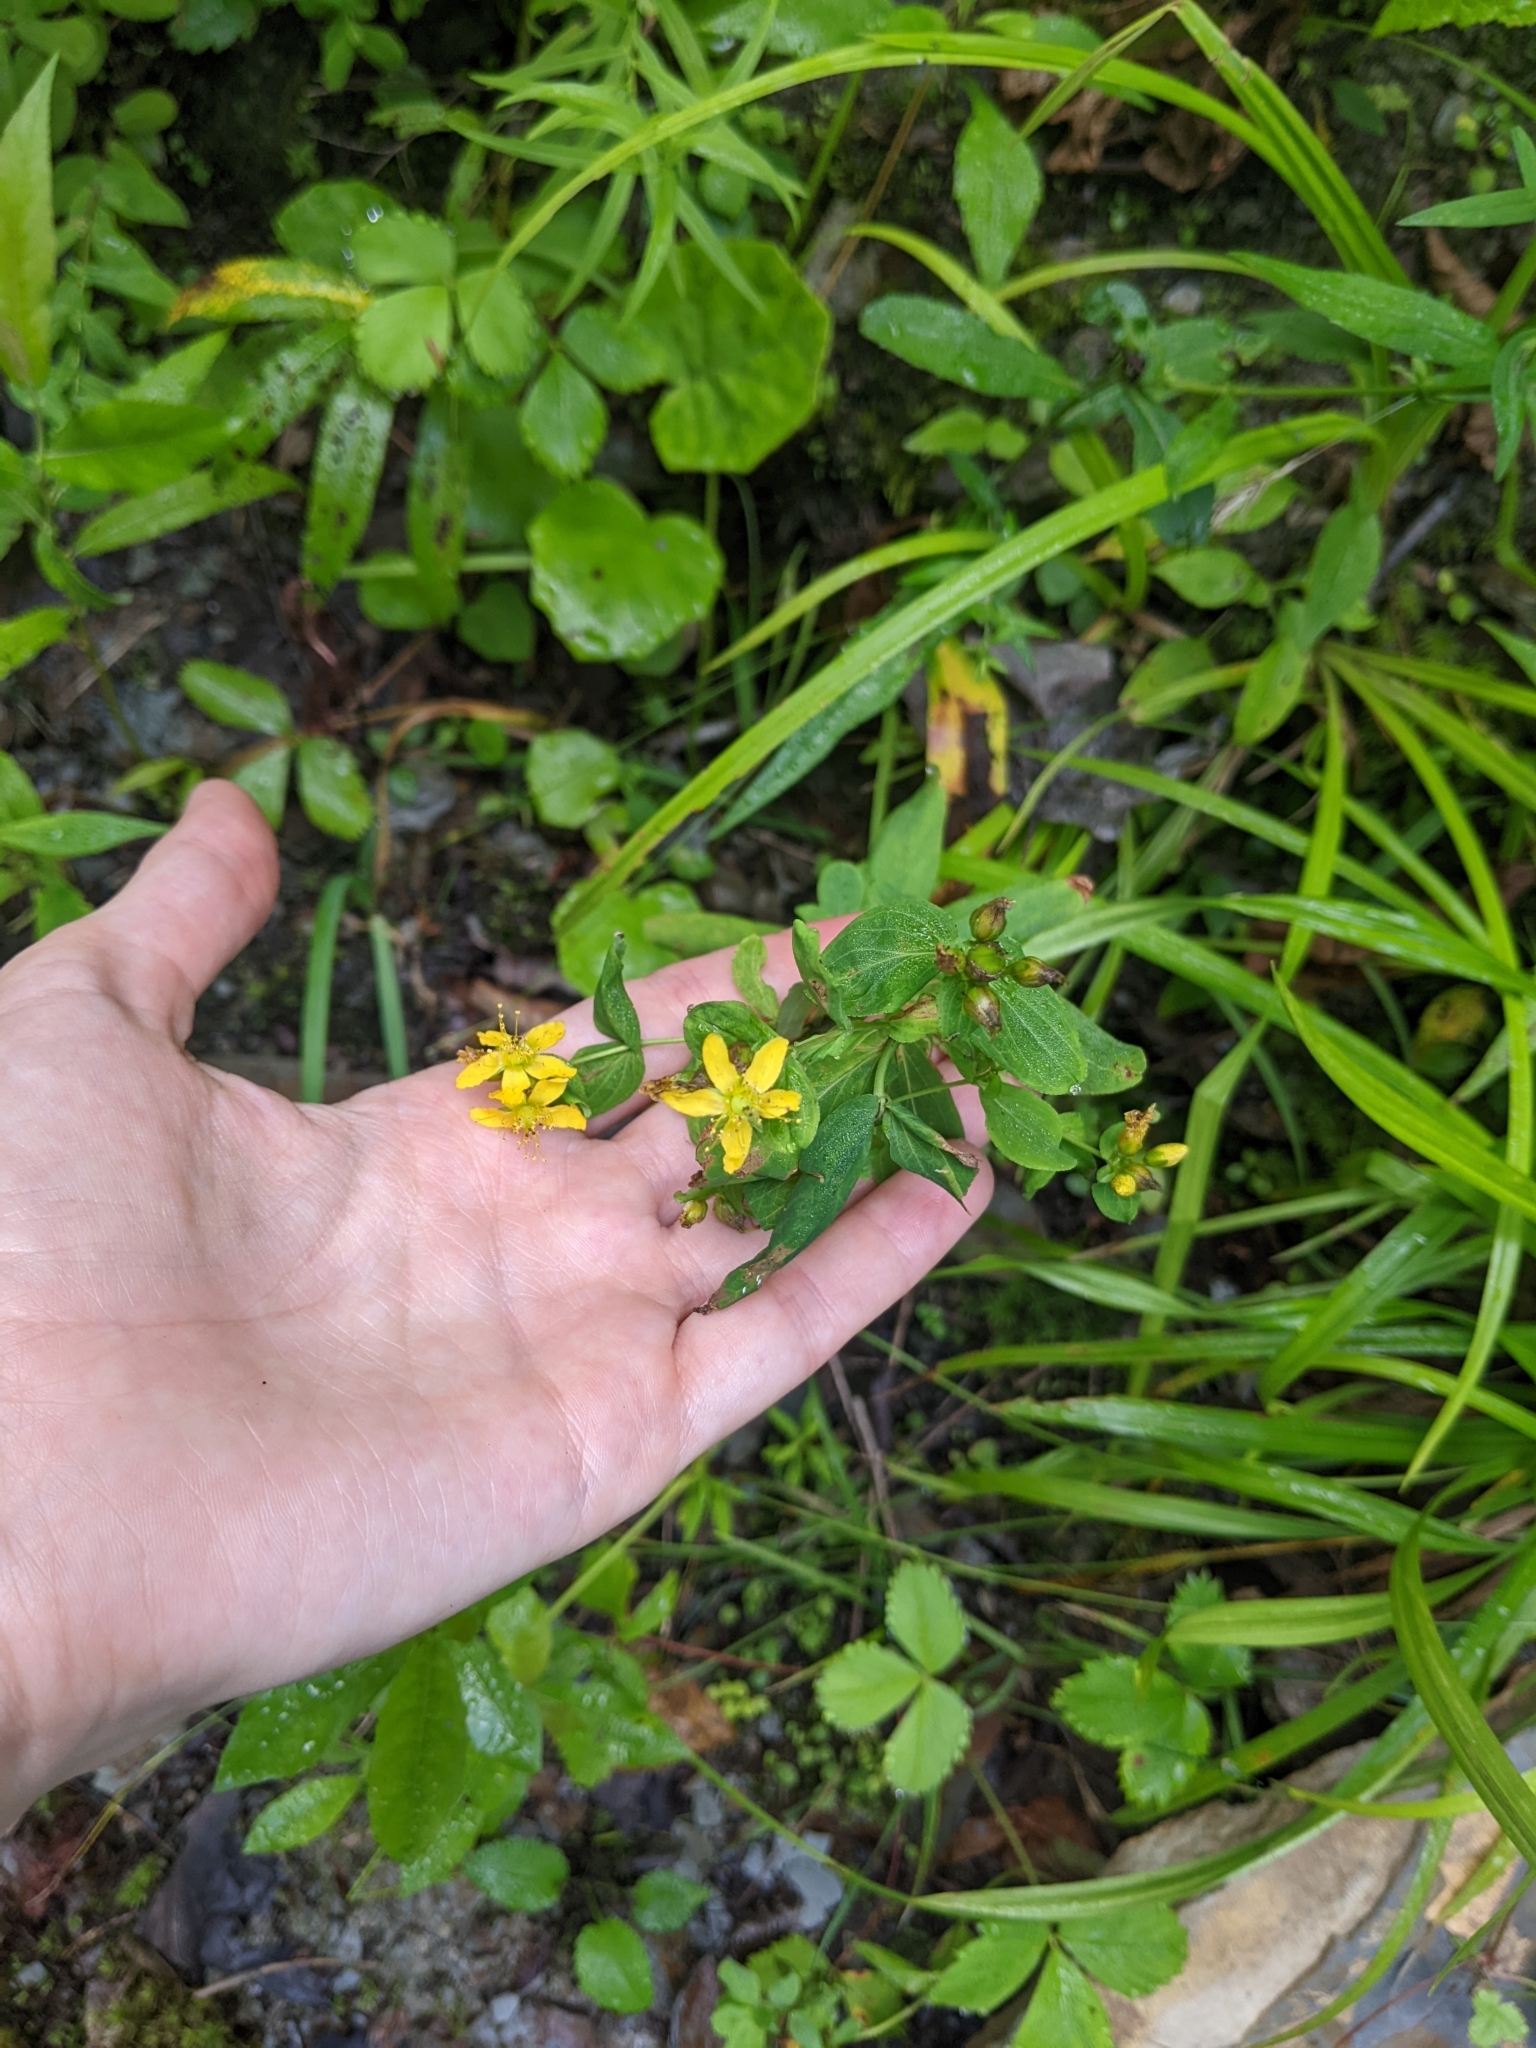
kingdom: Plantae
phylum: Tracheophyta
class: Magnoliopsida
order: Malpighiales
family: Hypericaceae
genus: Hypericum
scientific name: Hypericum punctatum
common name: Spotted st. john's-wort
